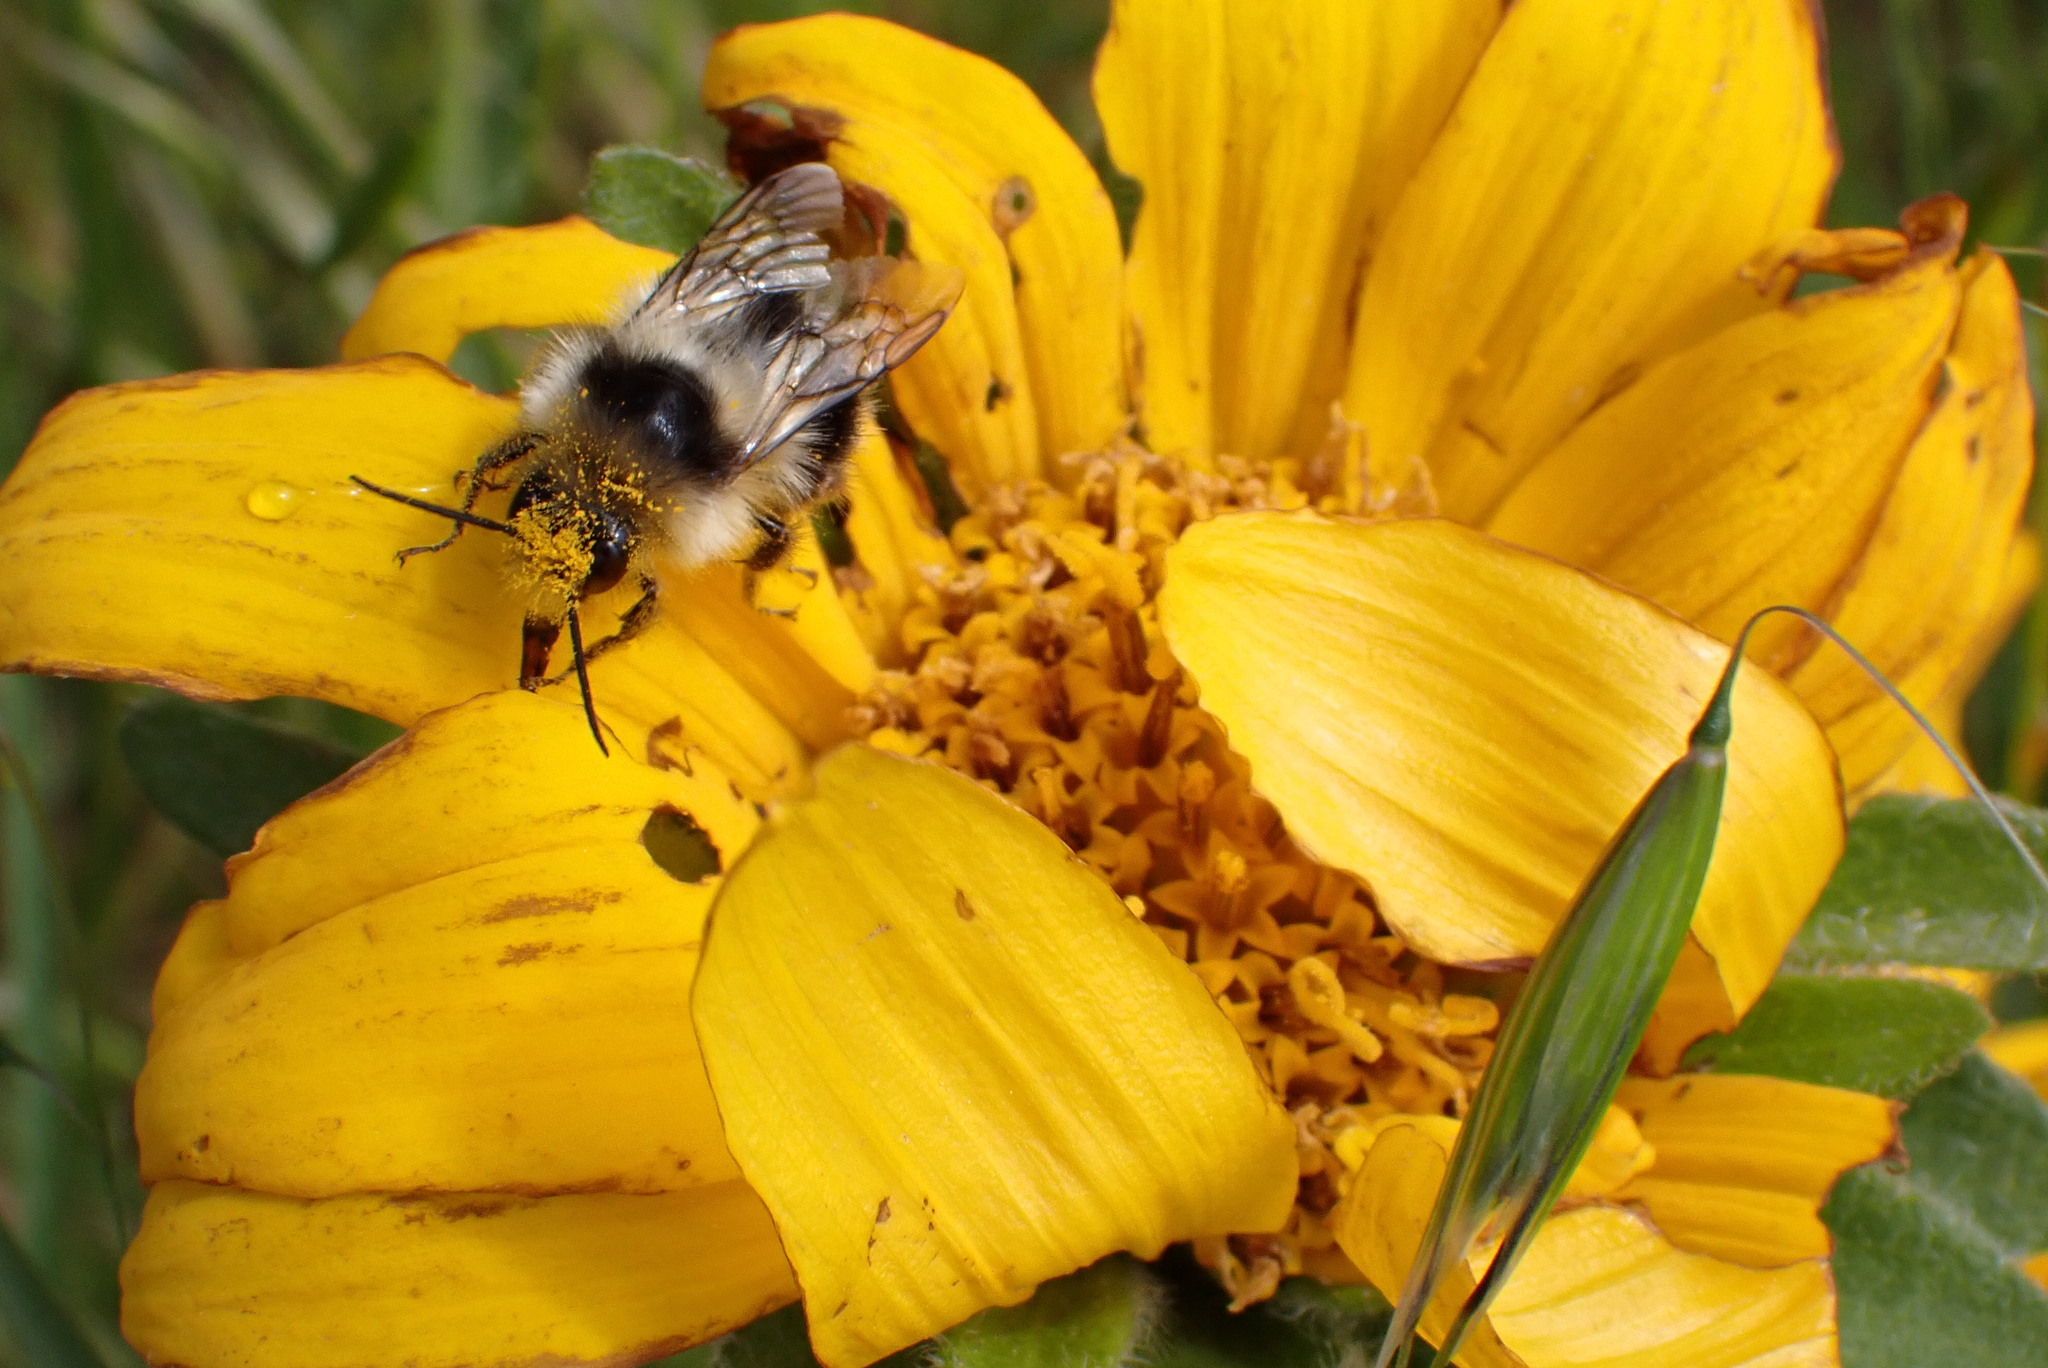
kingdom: Animalia
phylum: Arthropoda
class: Insecta
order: Hymenoptera
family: Apidae
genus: Bombus
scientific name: Bombus melanopygus
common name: Black tail bumble bee
